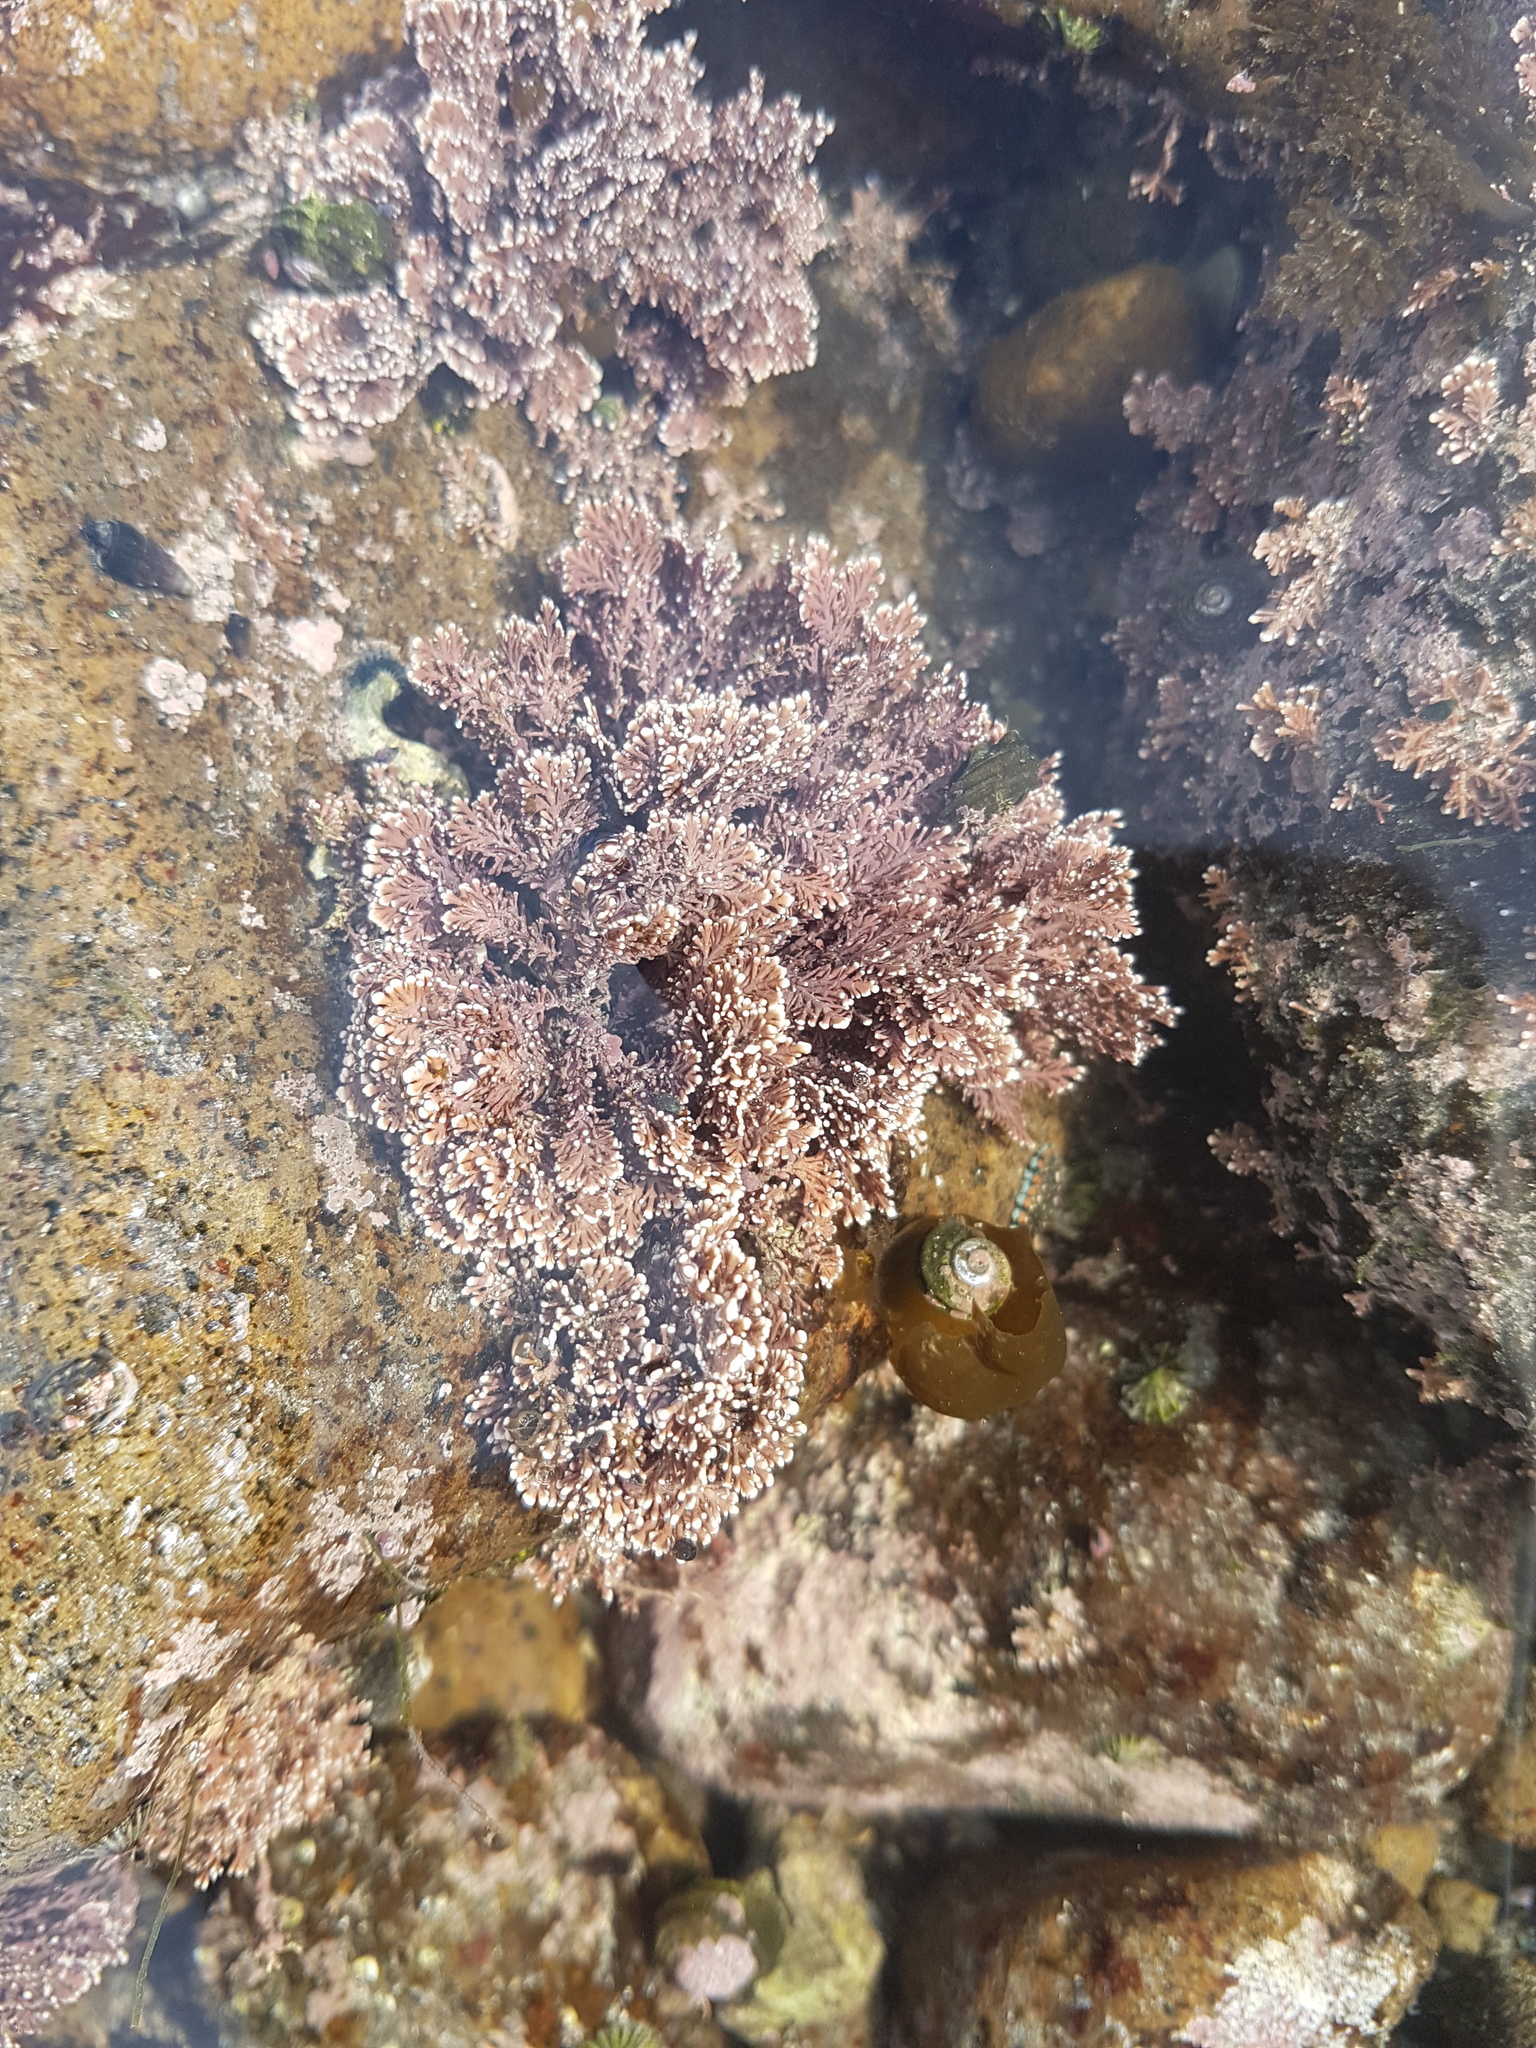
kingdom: Plantae
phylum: Rhodophyta
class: Florideophyceae
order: Corallinales
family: Corallinaceae
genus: Corallina
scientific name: Corallina officinalis
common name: Coral weed
